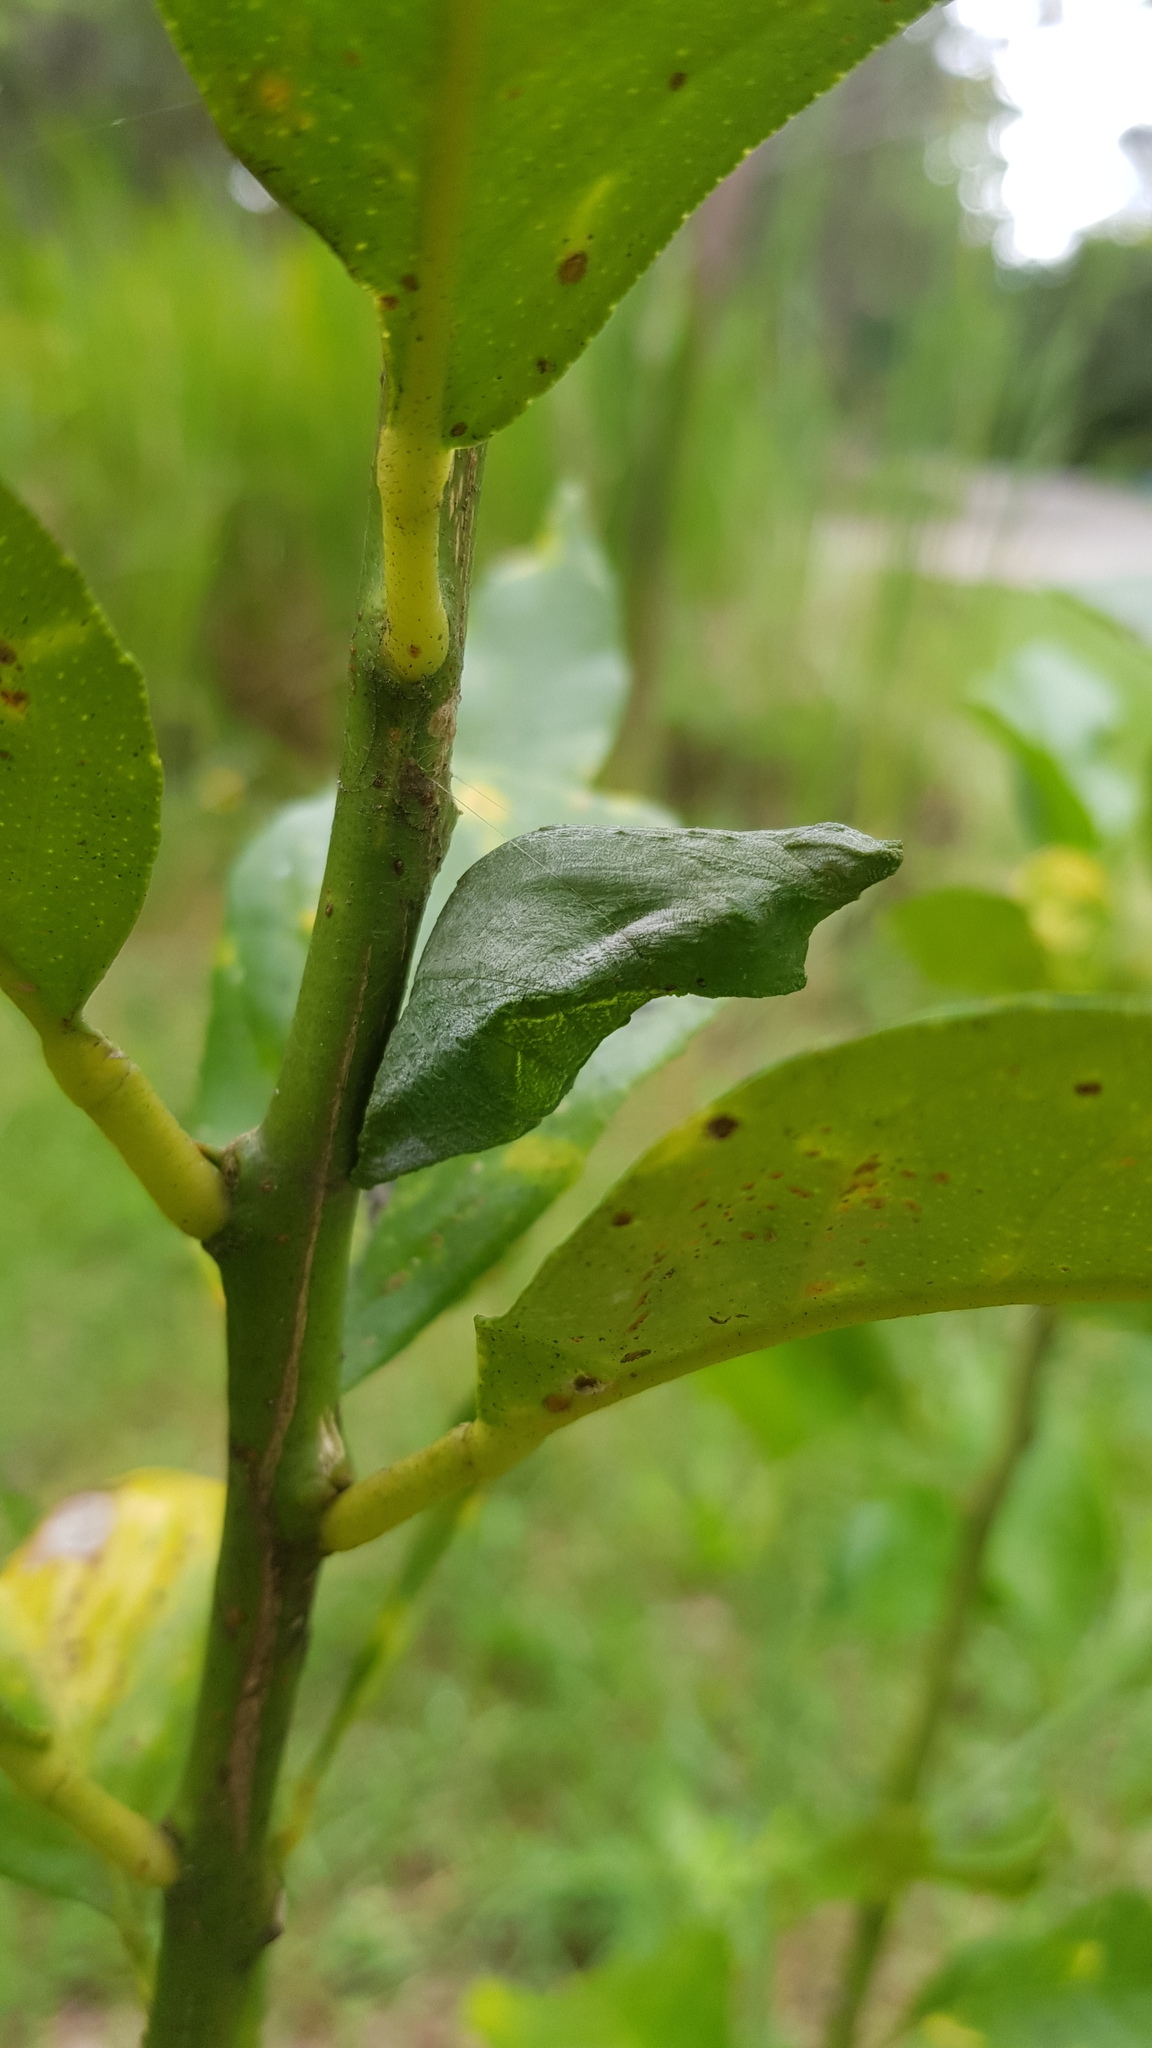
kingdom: Animalia
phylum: Arthropoda
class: Insecta
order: Lepidoptera
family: Papilionidae
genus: Papilio
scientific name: Papilio aegeus
